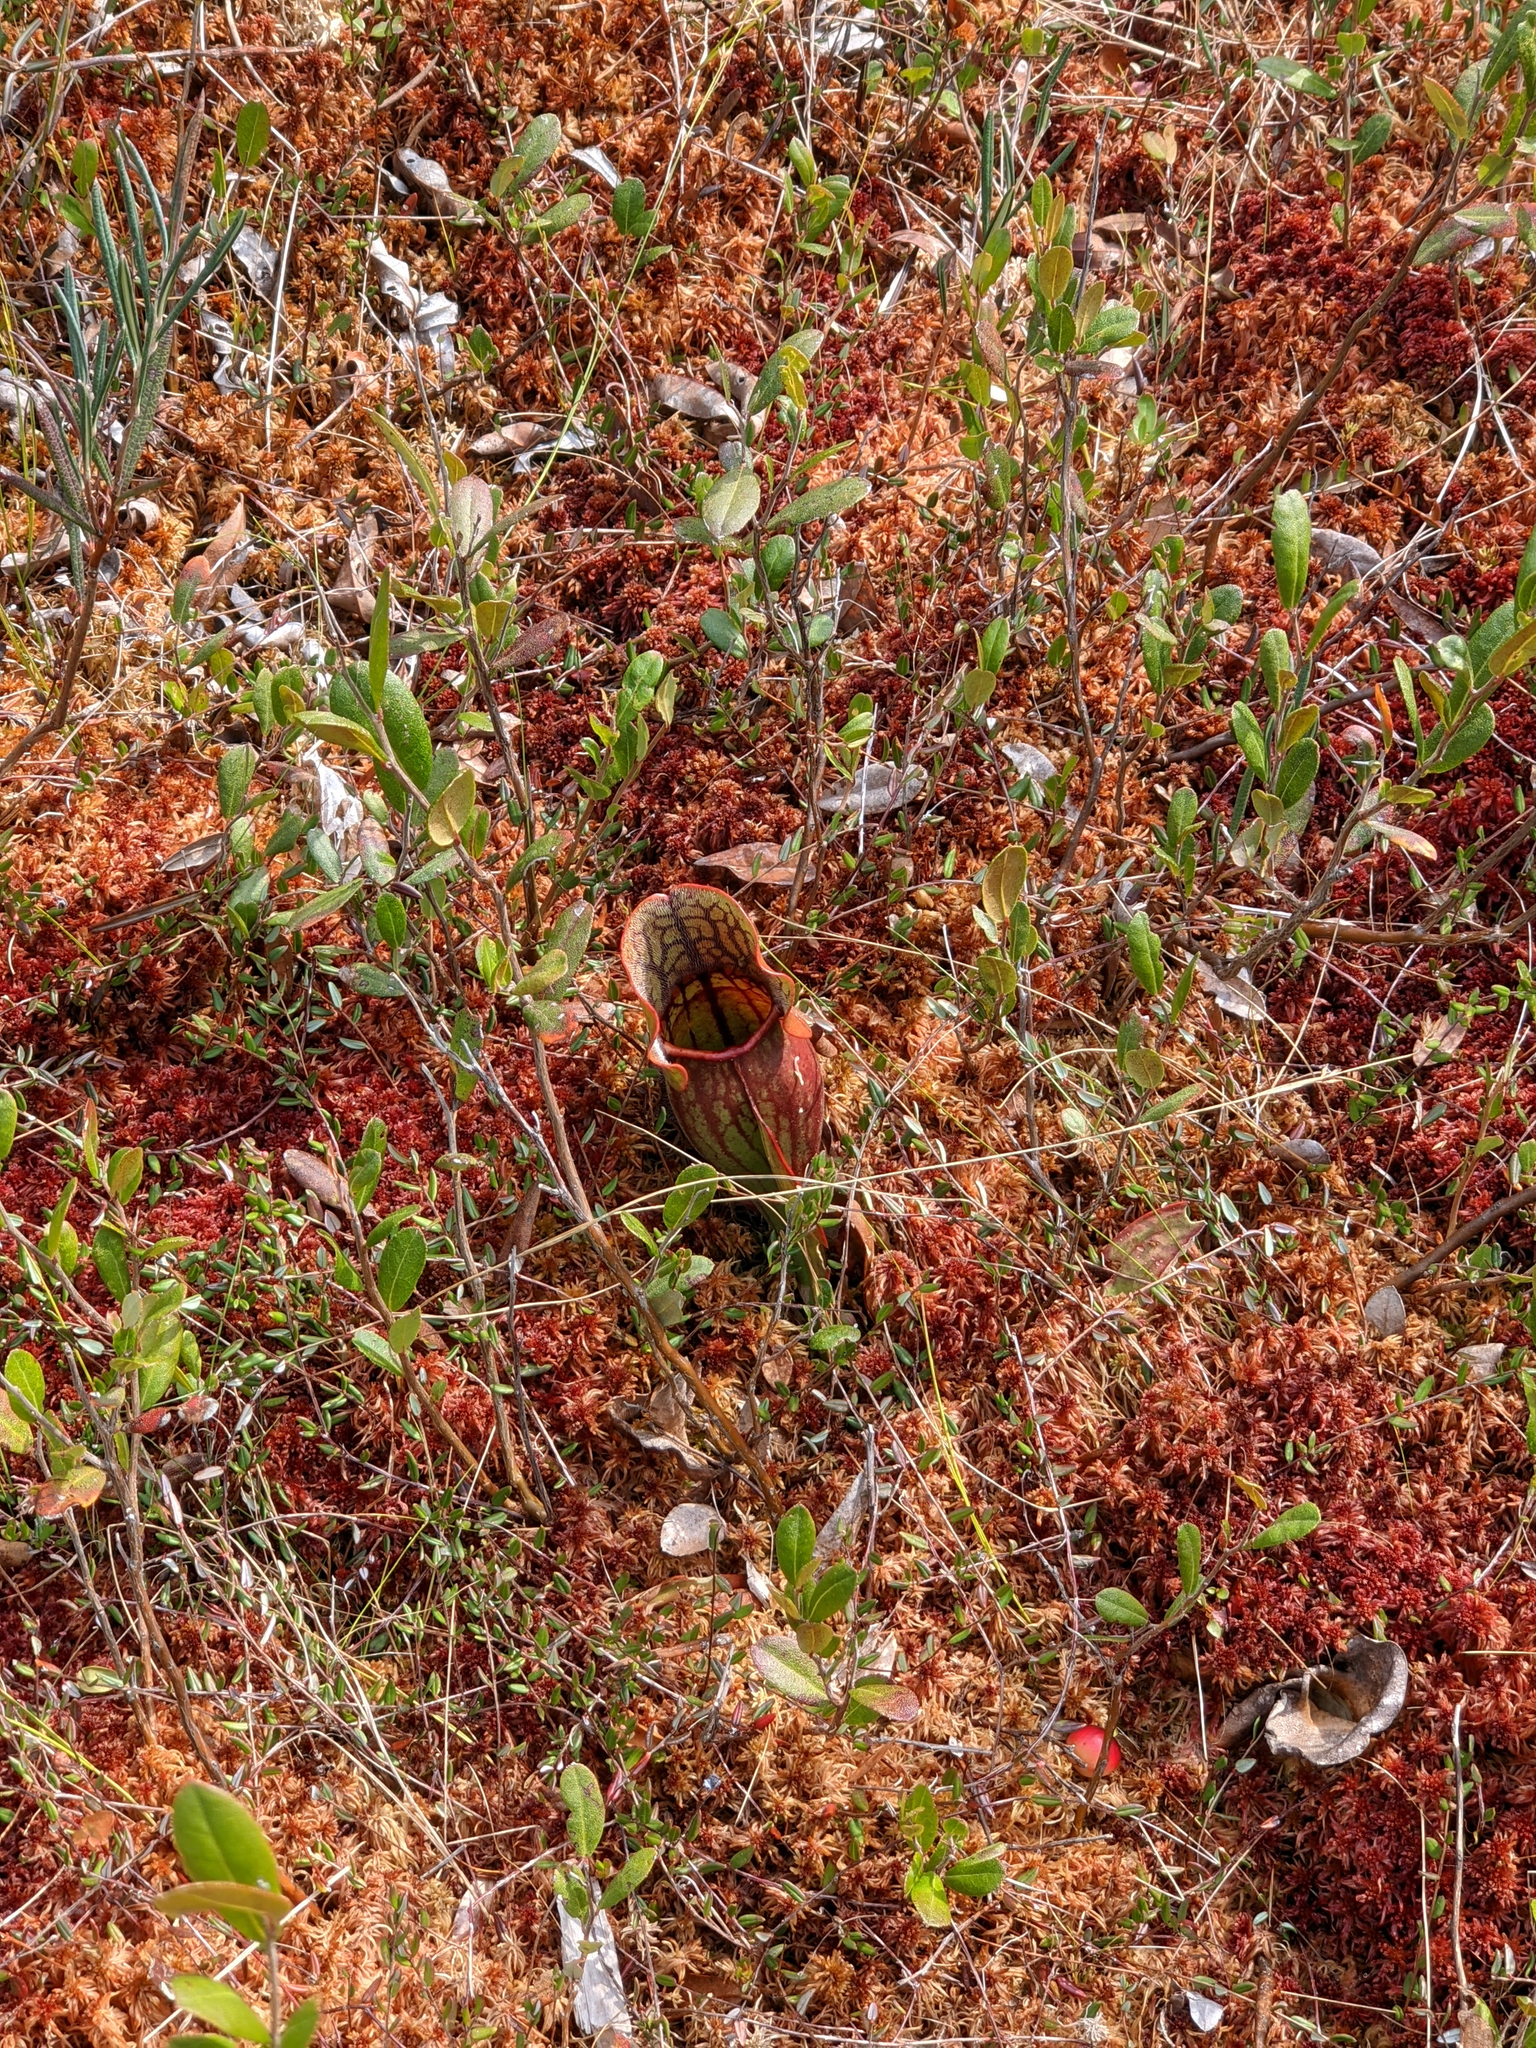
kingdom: Plantae
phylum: Tracheophyta
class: Magnoliopsida
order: Ericales
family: Sarraceniaceae
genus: Sarracenia
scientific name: Sarracenia purpurea
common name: Pitcherplant
